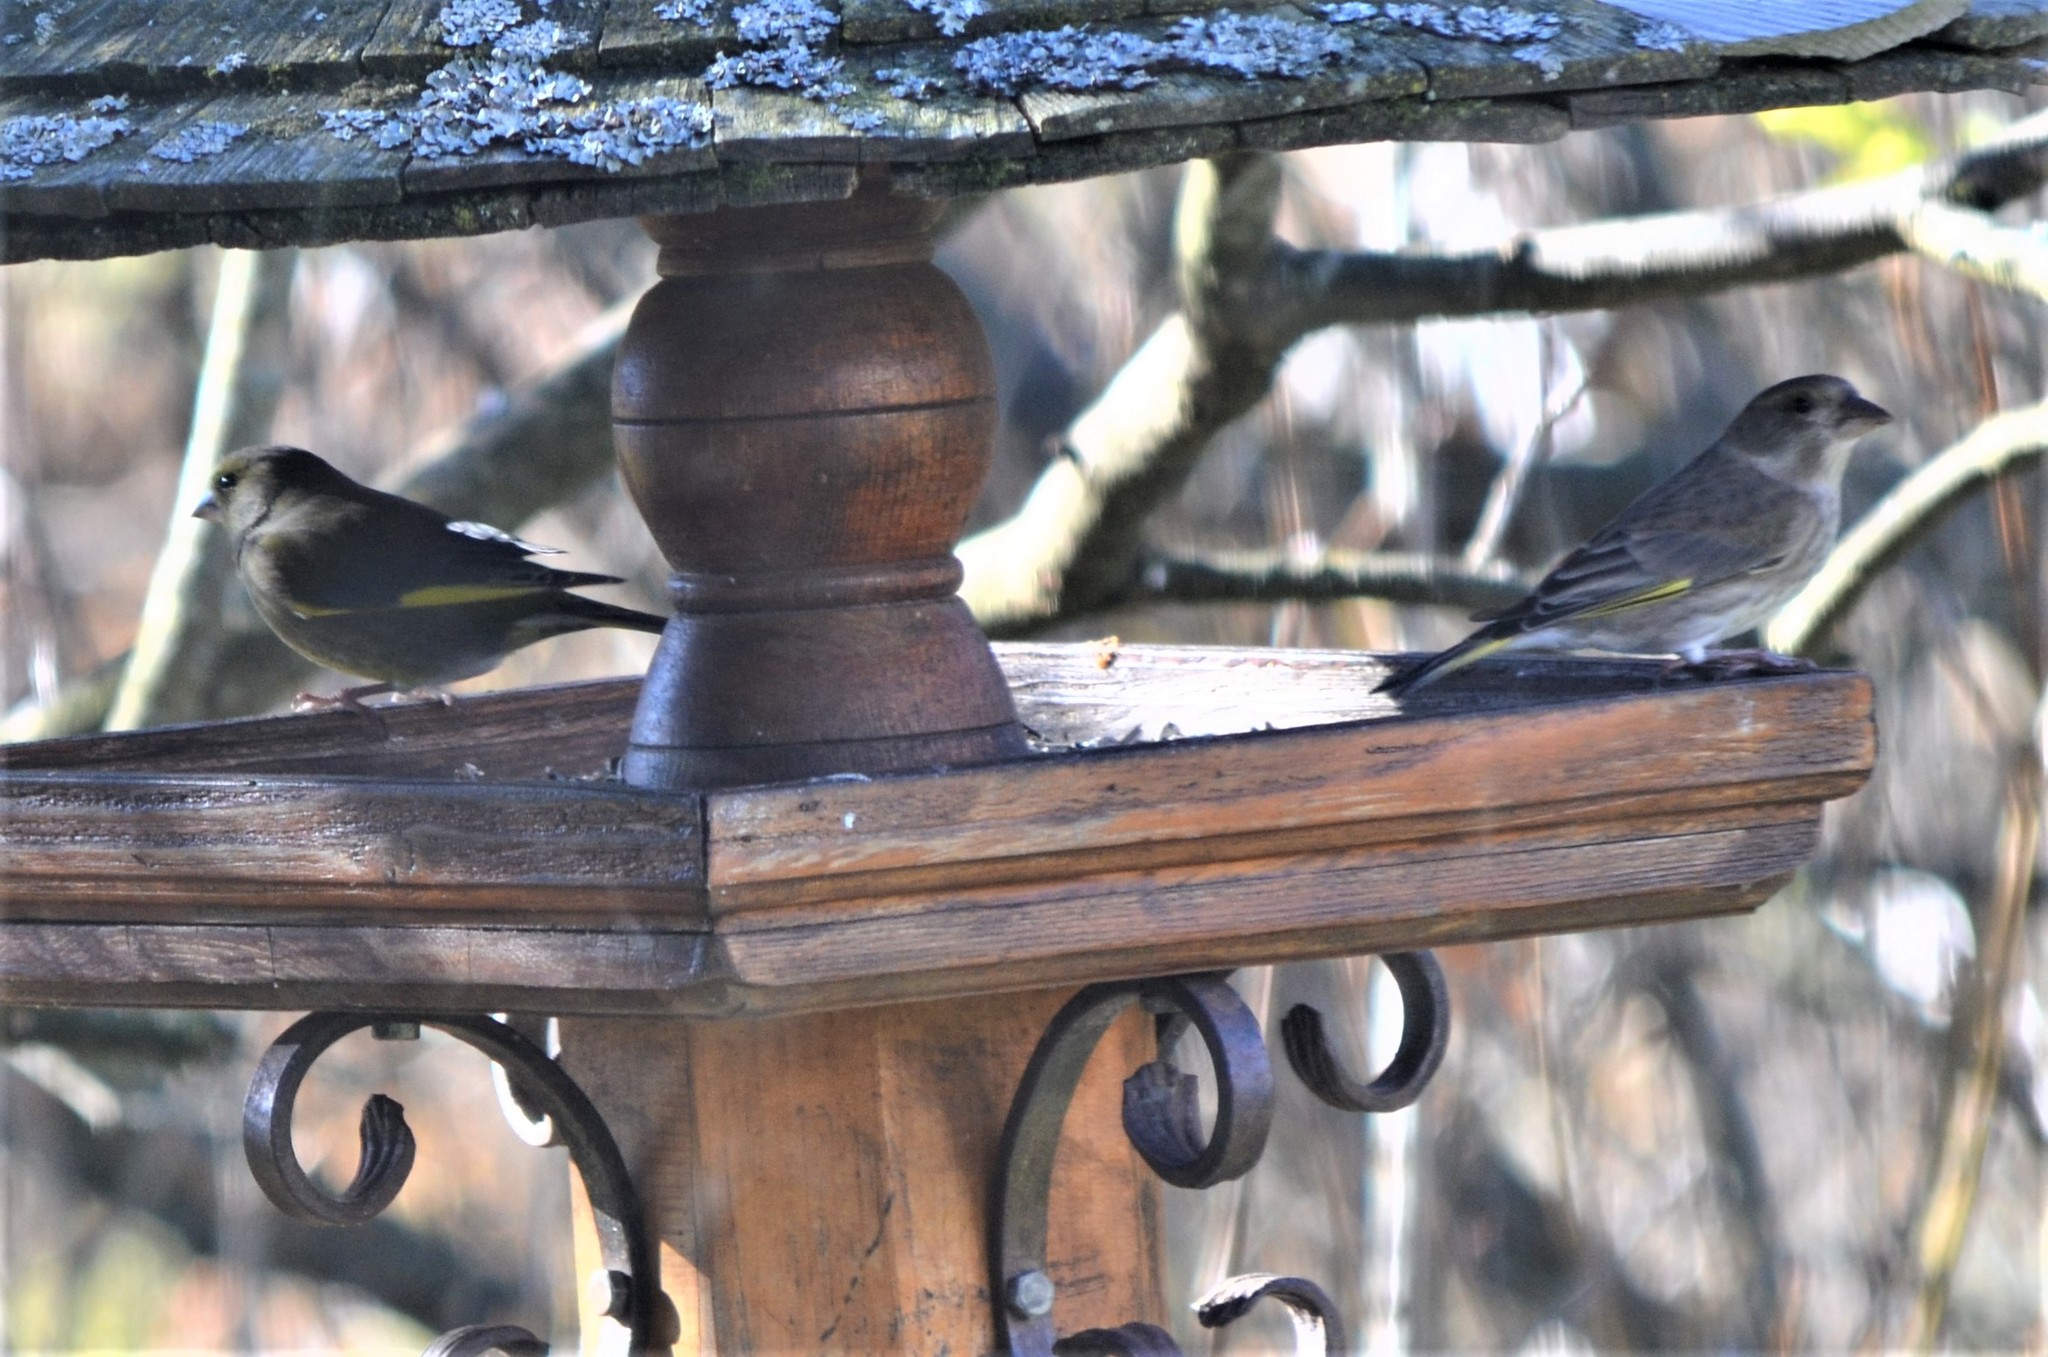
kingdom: Plantae
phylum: Tracheophyta
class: Liliopsida
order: Poales
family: Poaceae
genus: Chloris
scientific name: Chloris chloris
